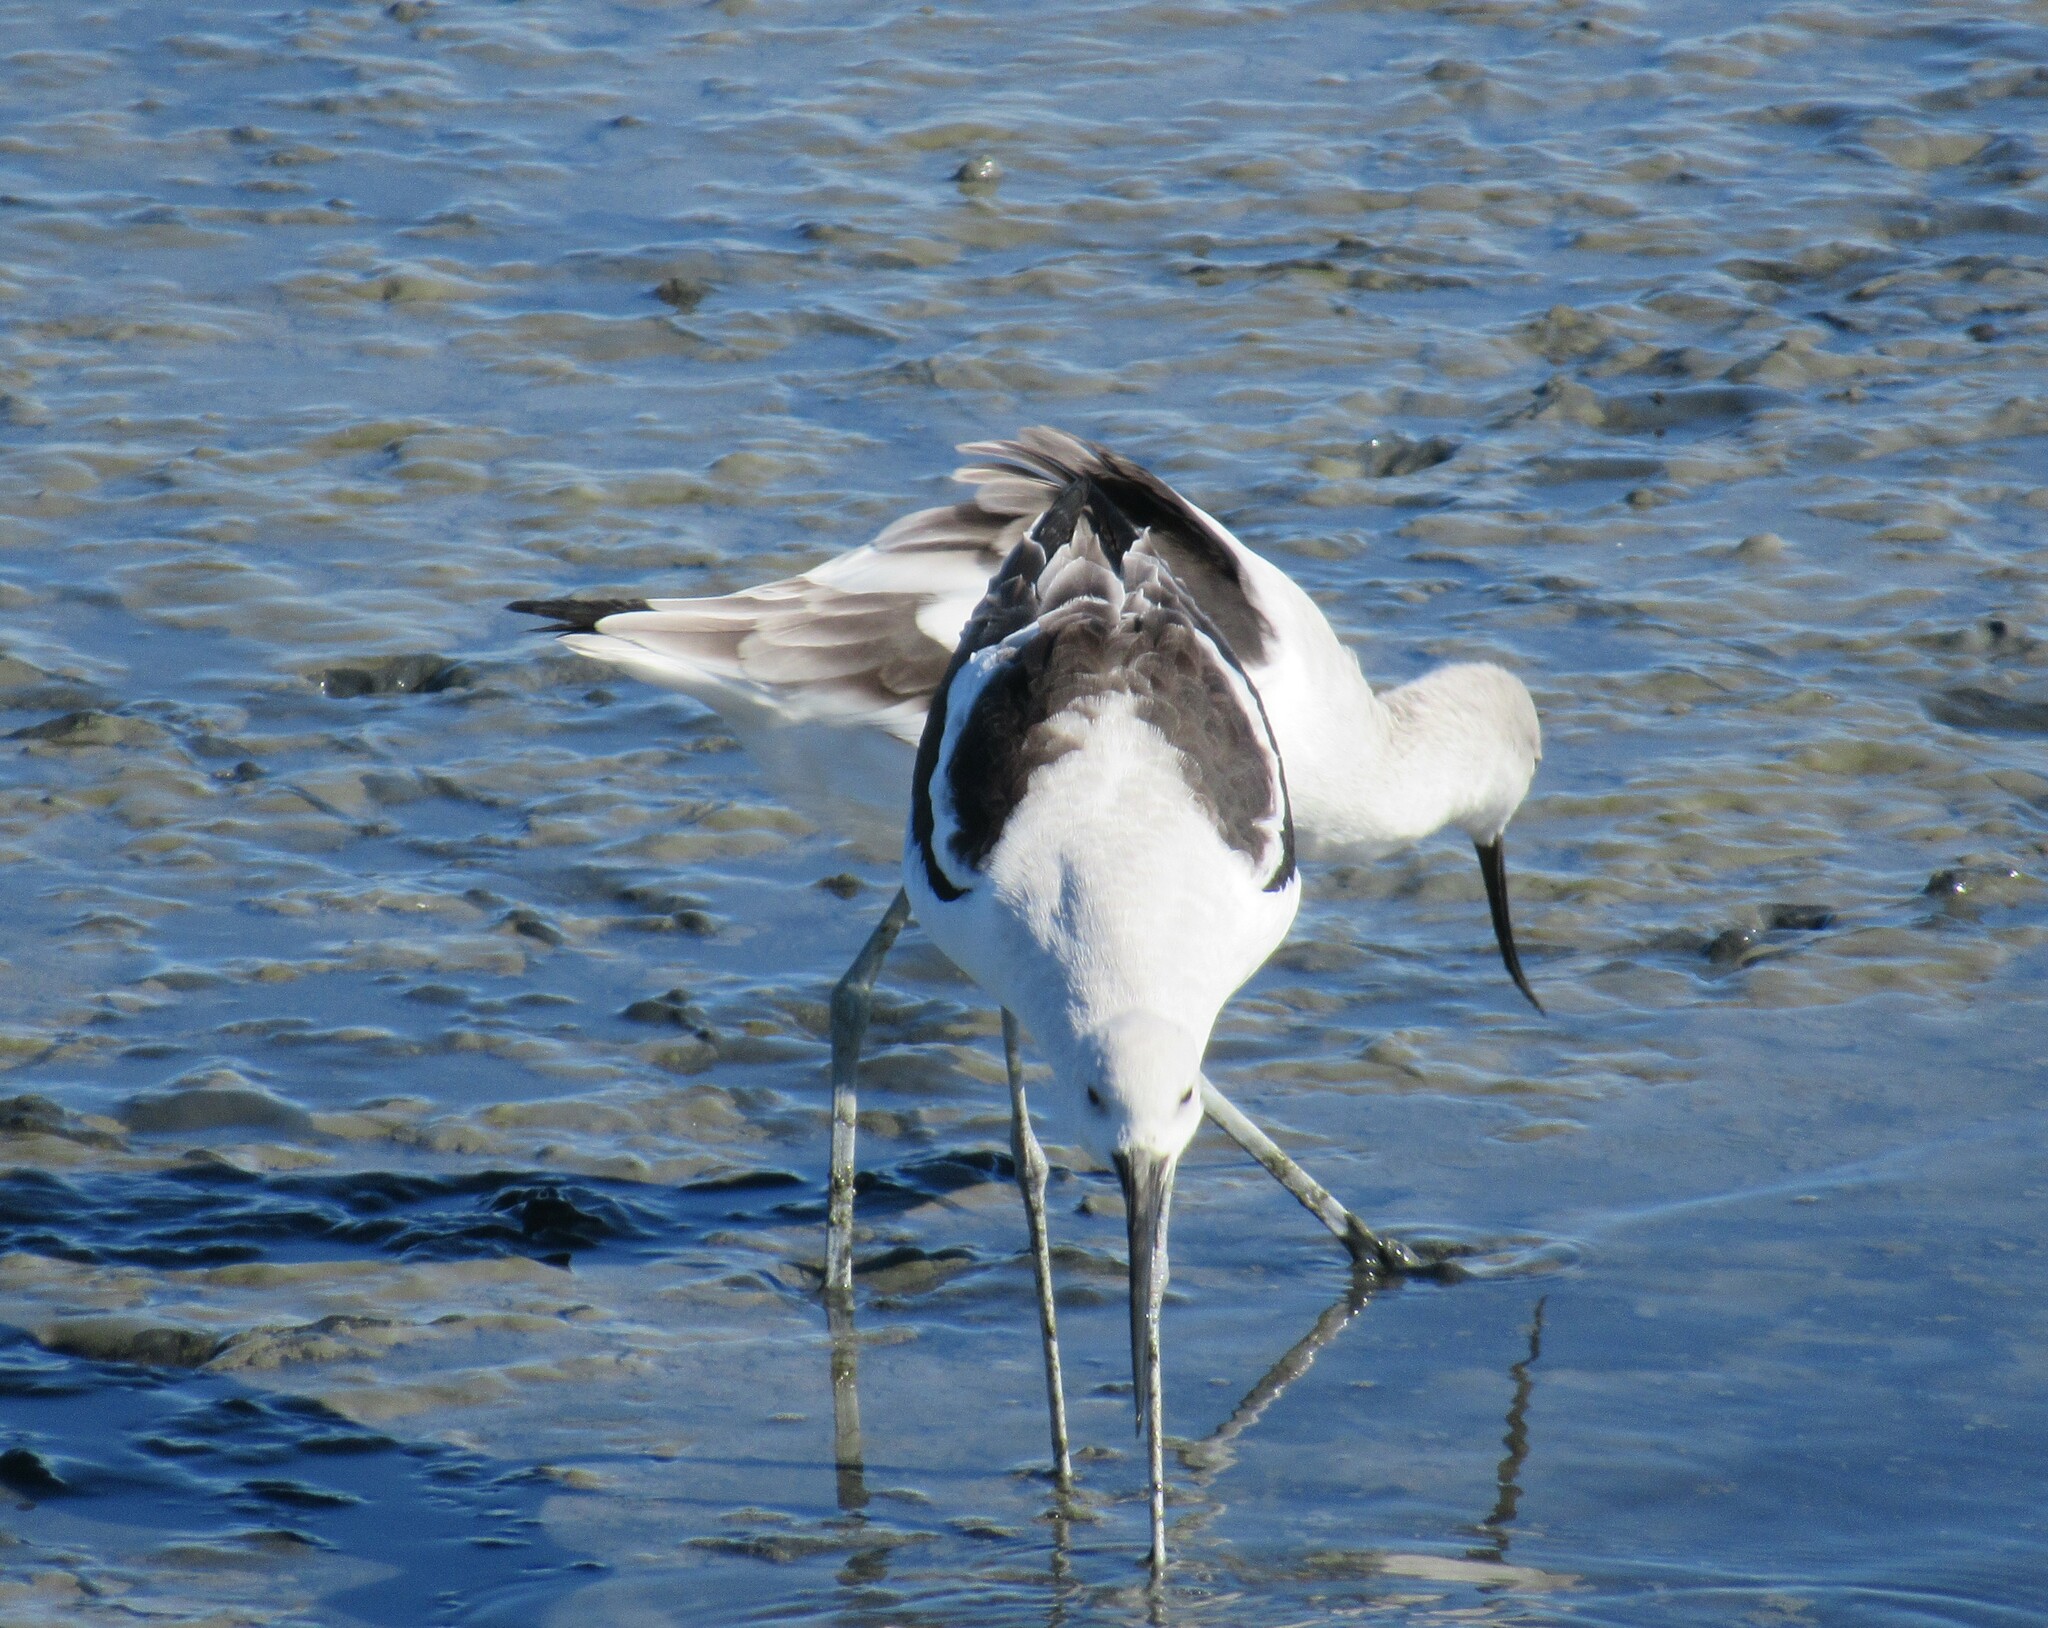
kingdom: Animalia
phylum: Chordata
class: Aves
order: Charadriiformes
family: Recurvirostridae
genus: Recurvirostra
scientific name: Recurvirostra americana
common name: American avocet
